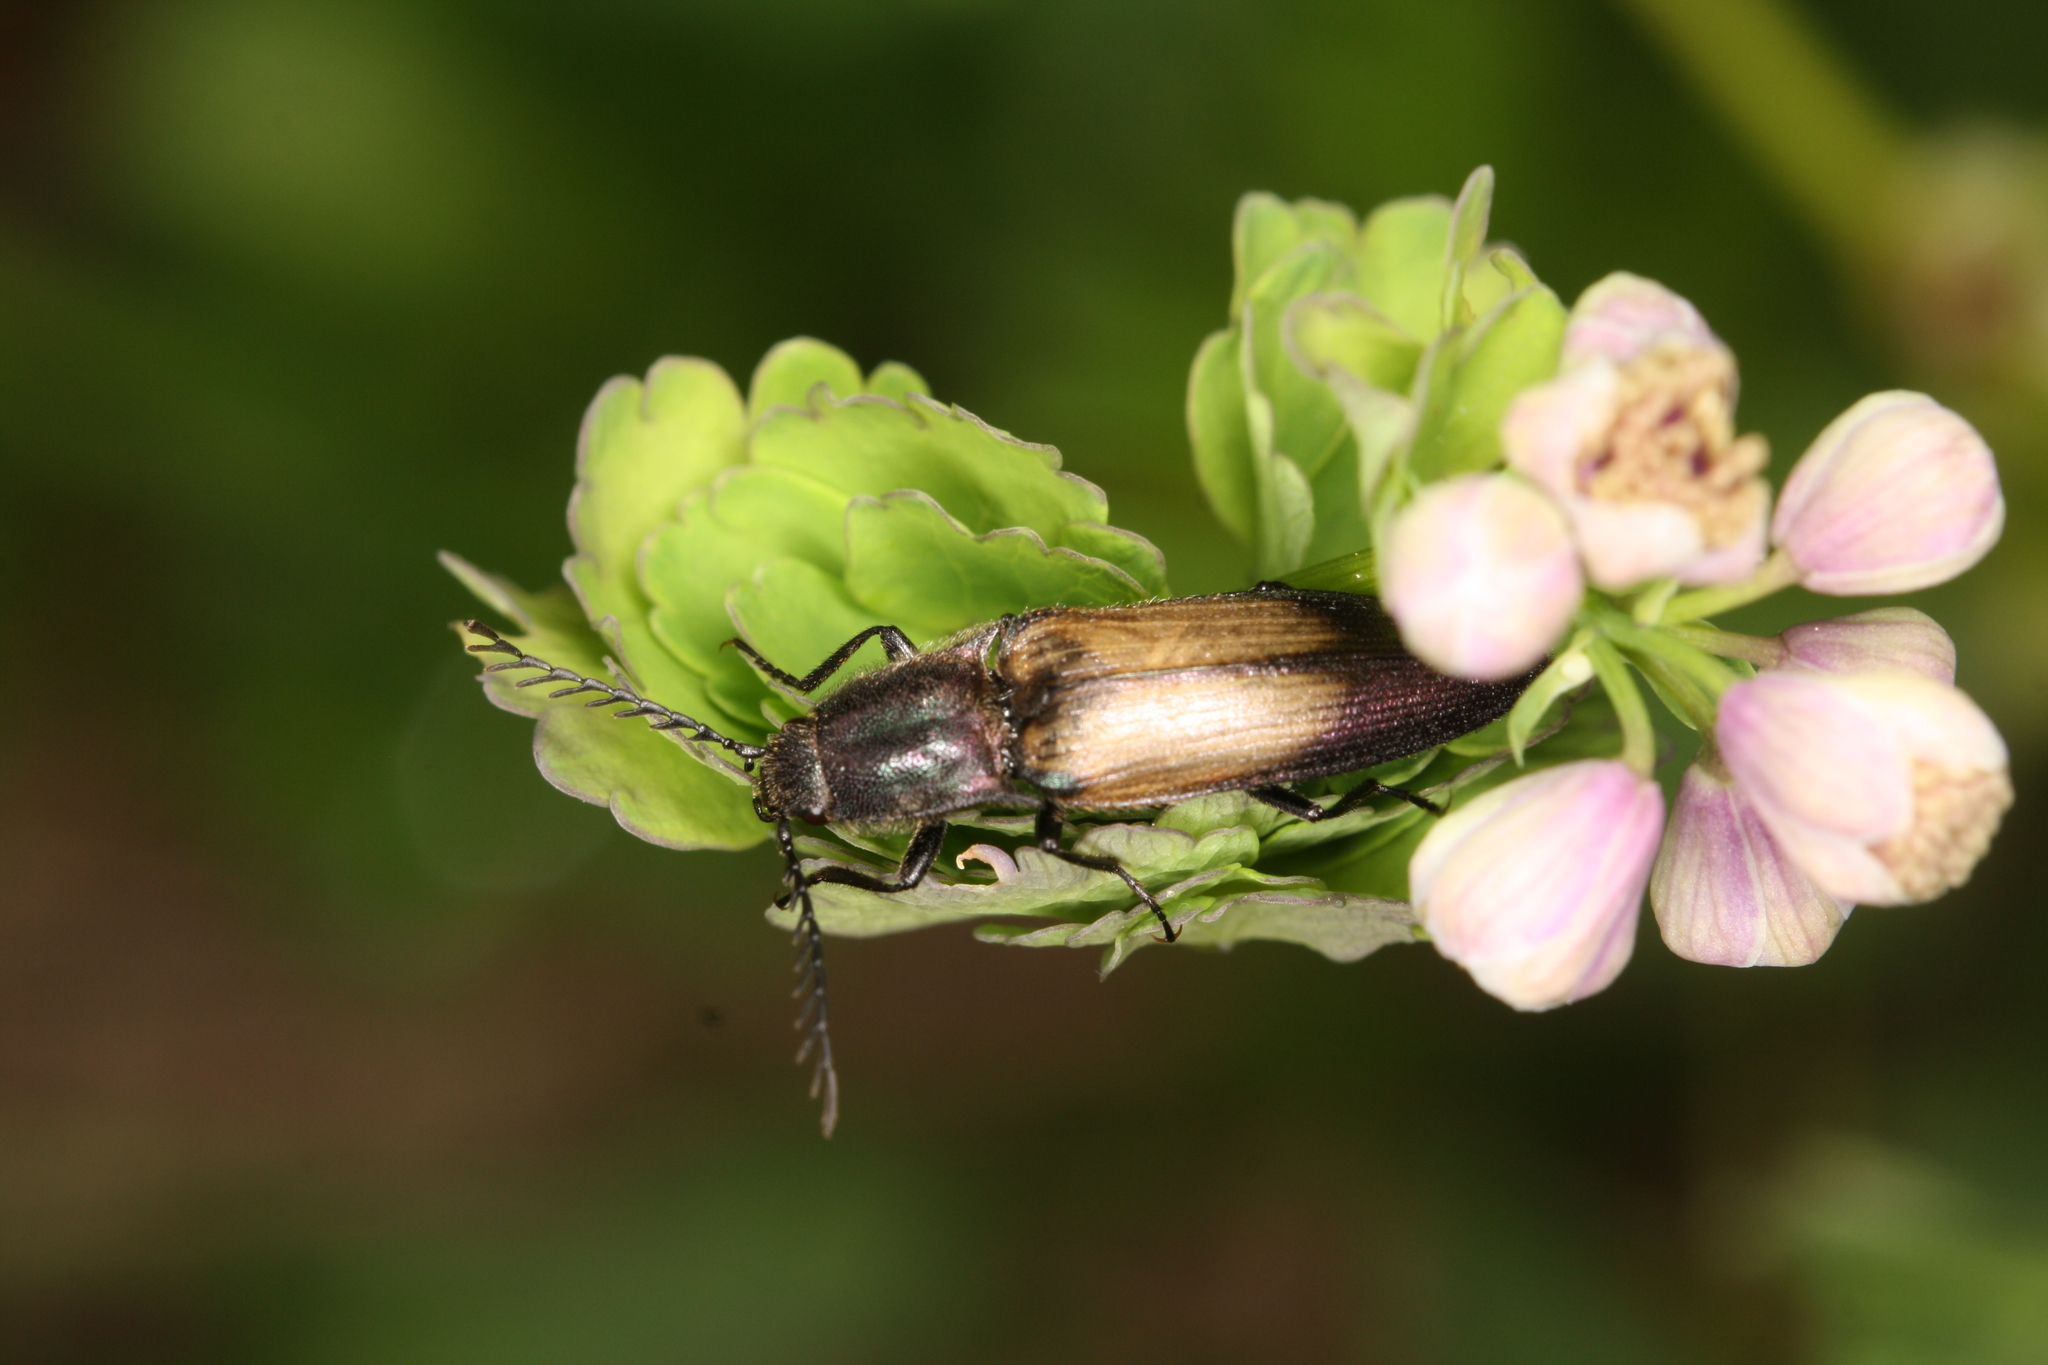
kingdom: Animalia
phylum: Arthropoda
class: Insecta
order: Coleoptera
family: Elateridae
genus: Ctenicera
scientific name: Ctenicera cuprea
